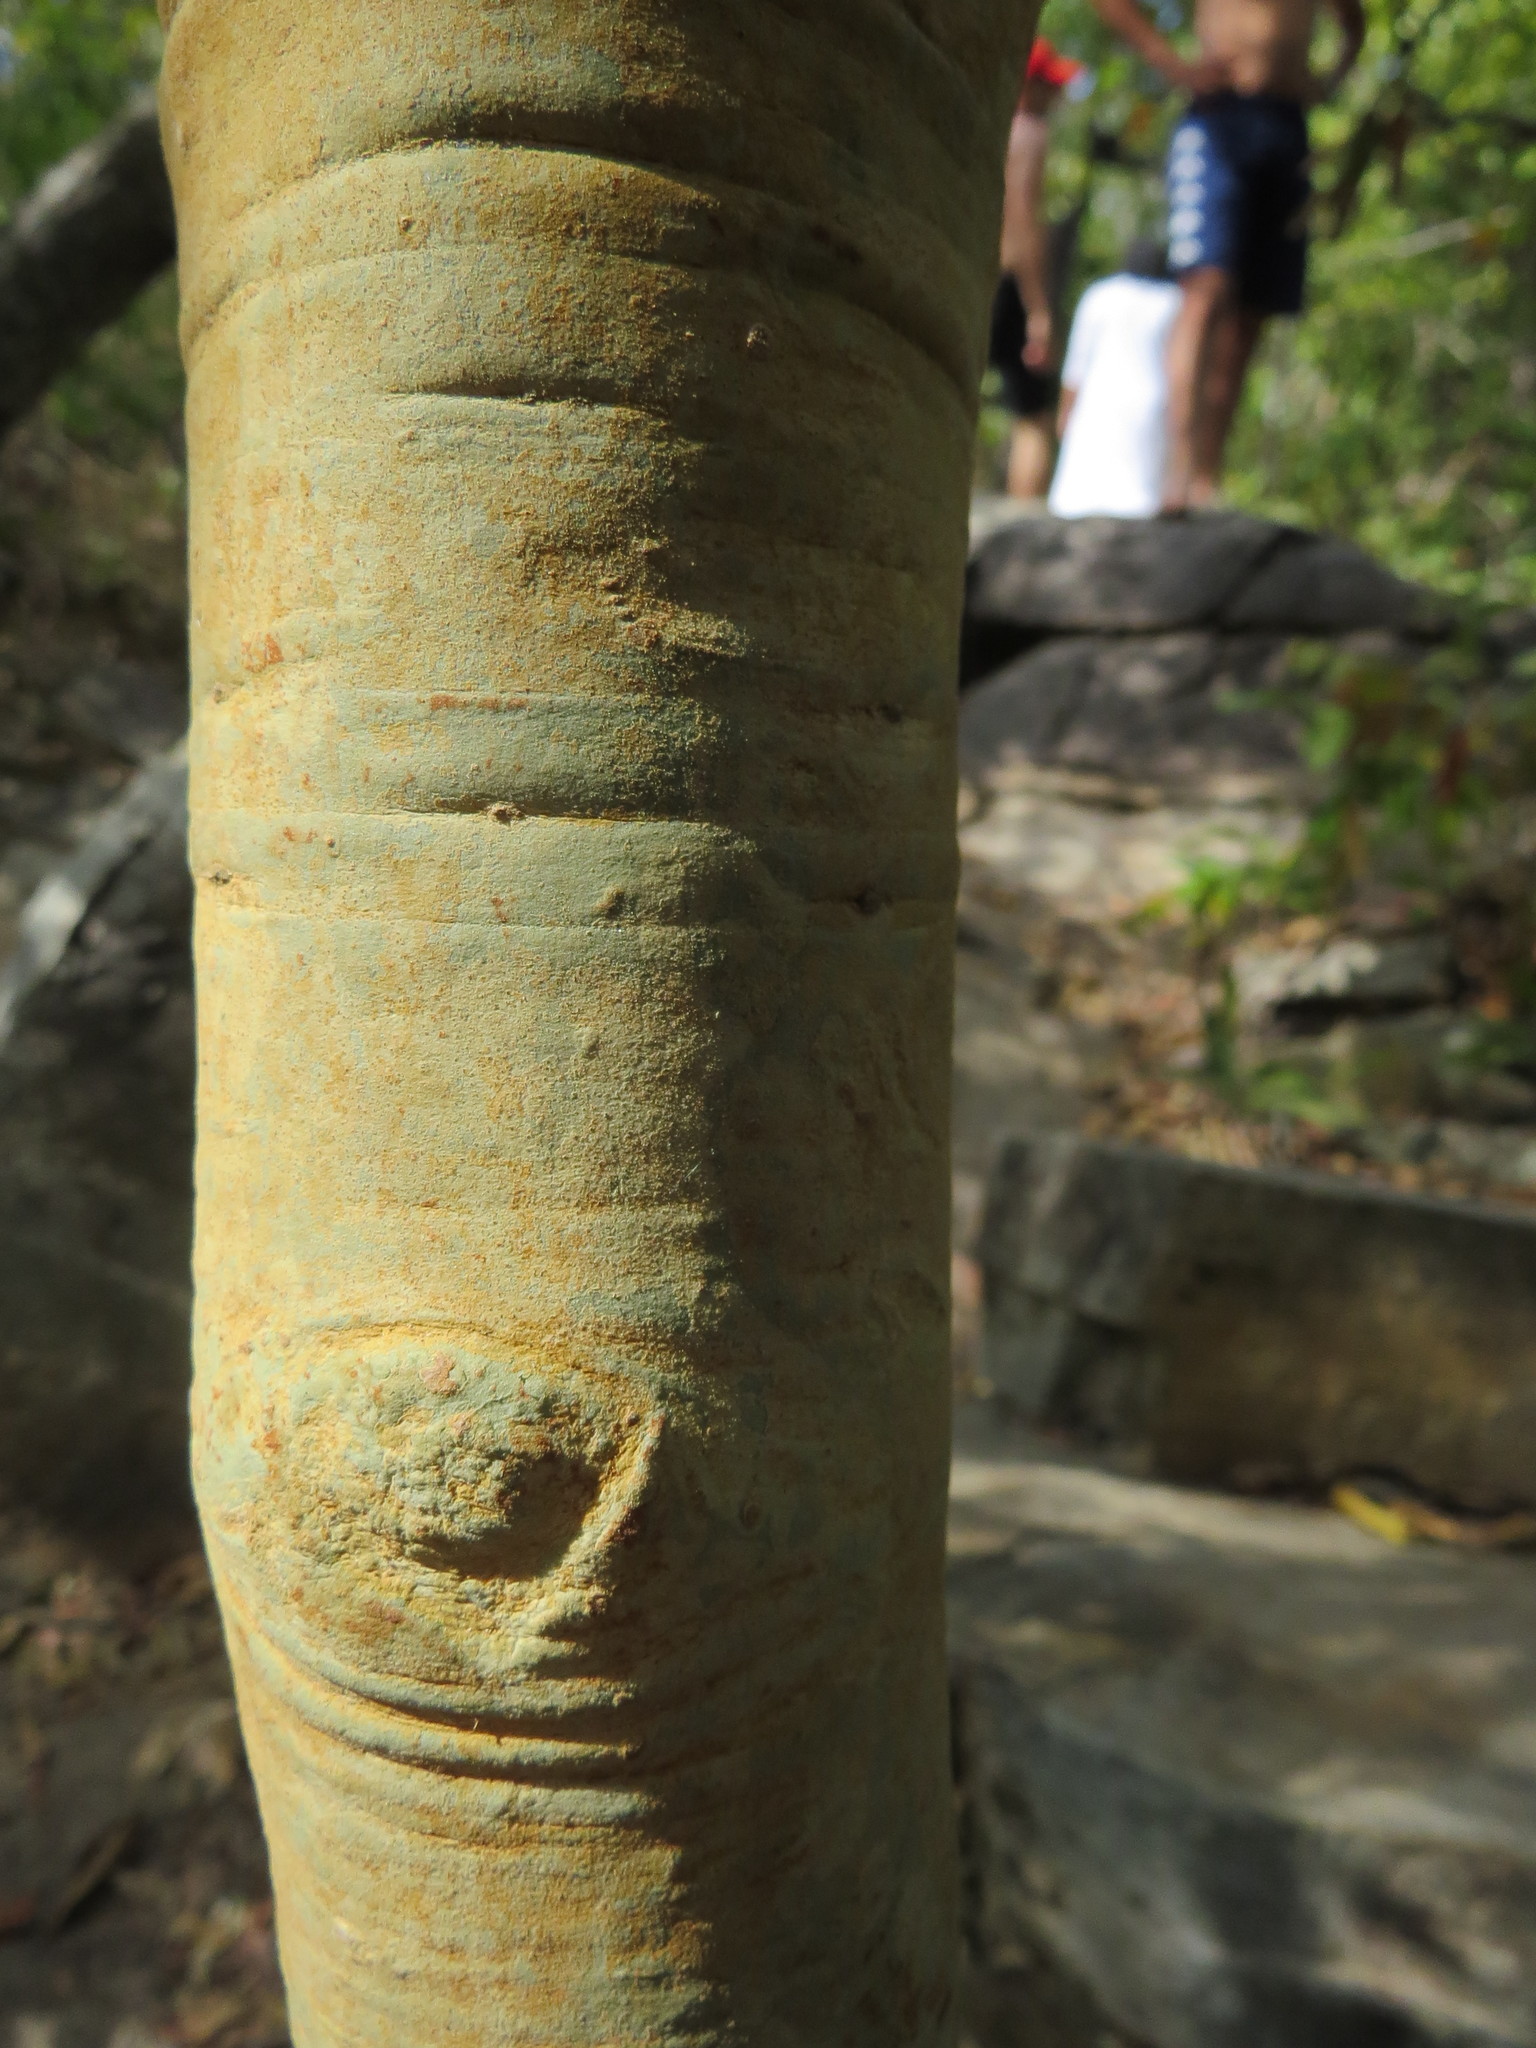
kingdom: Plantae
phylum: Tracheophyta
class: Magnoliopsida
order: Myrtales
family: Vochysiaceae
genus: Vochysia
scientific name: Vochysia haenkeana
